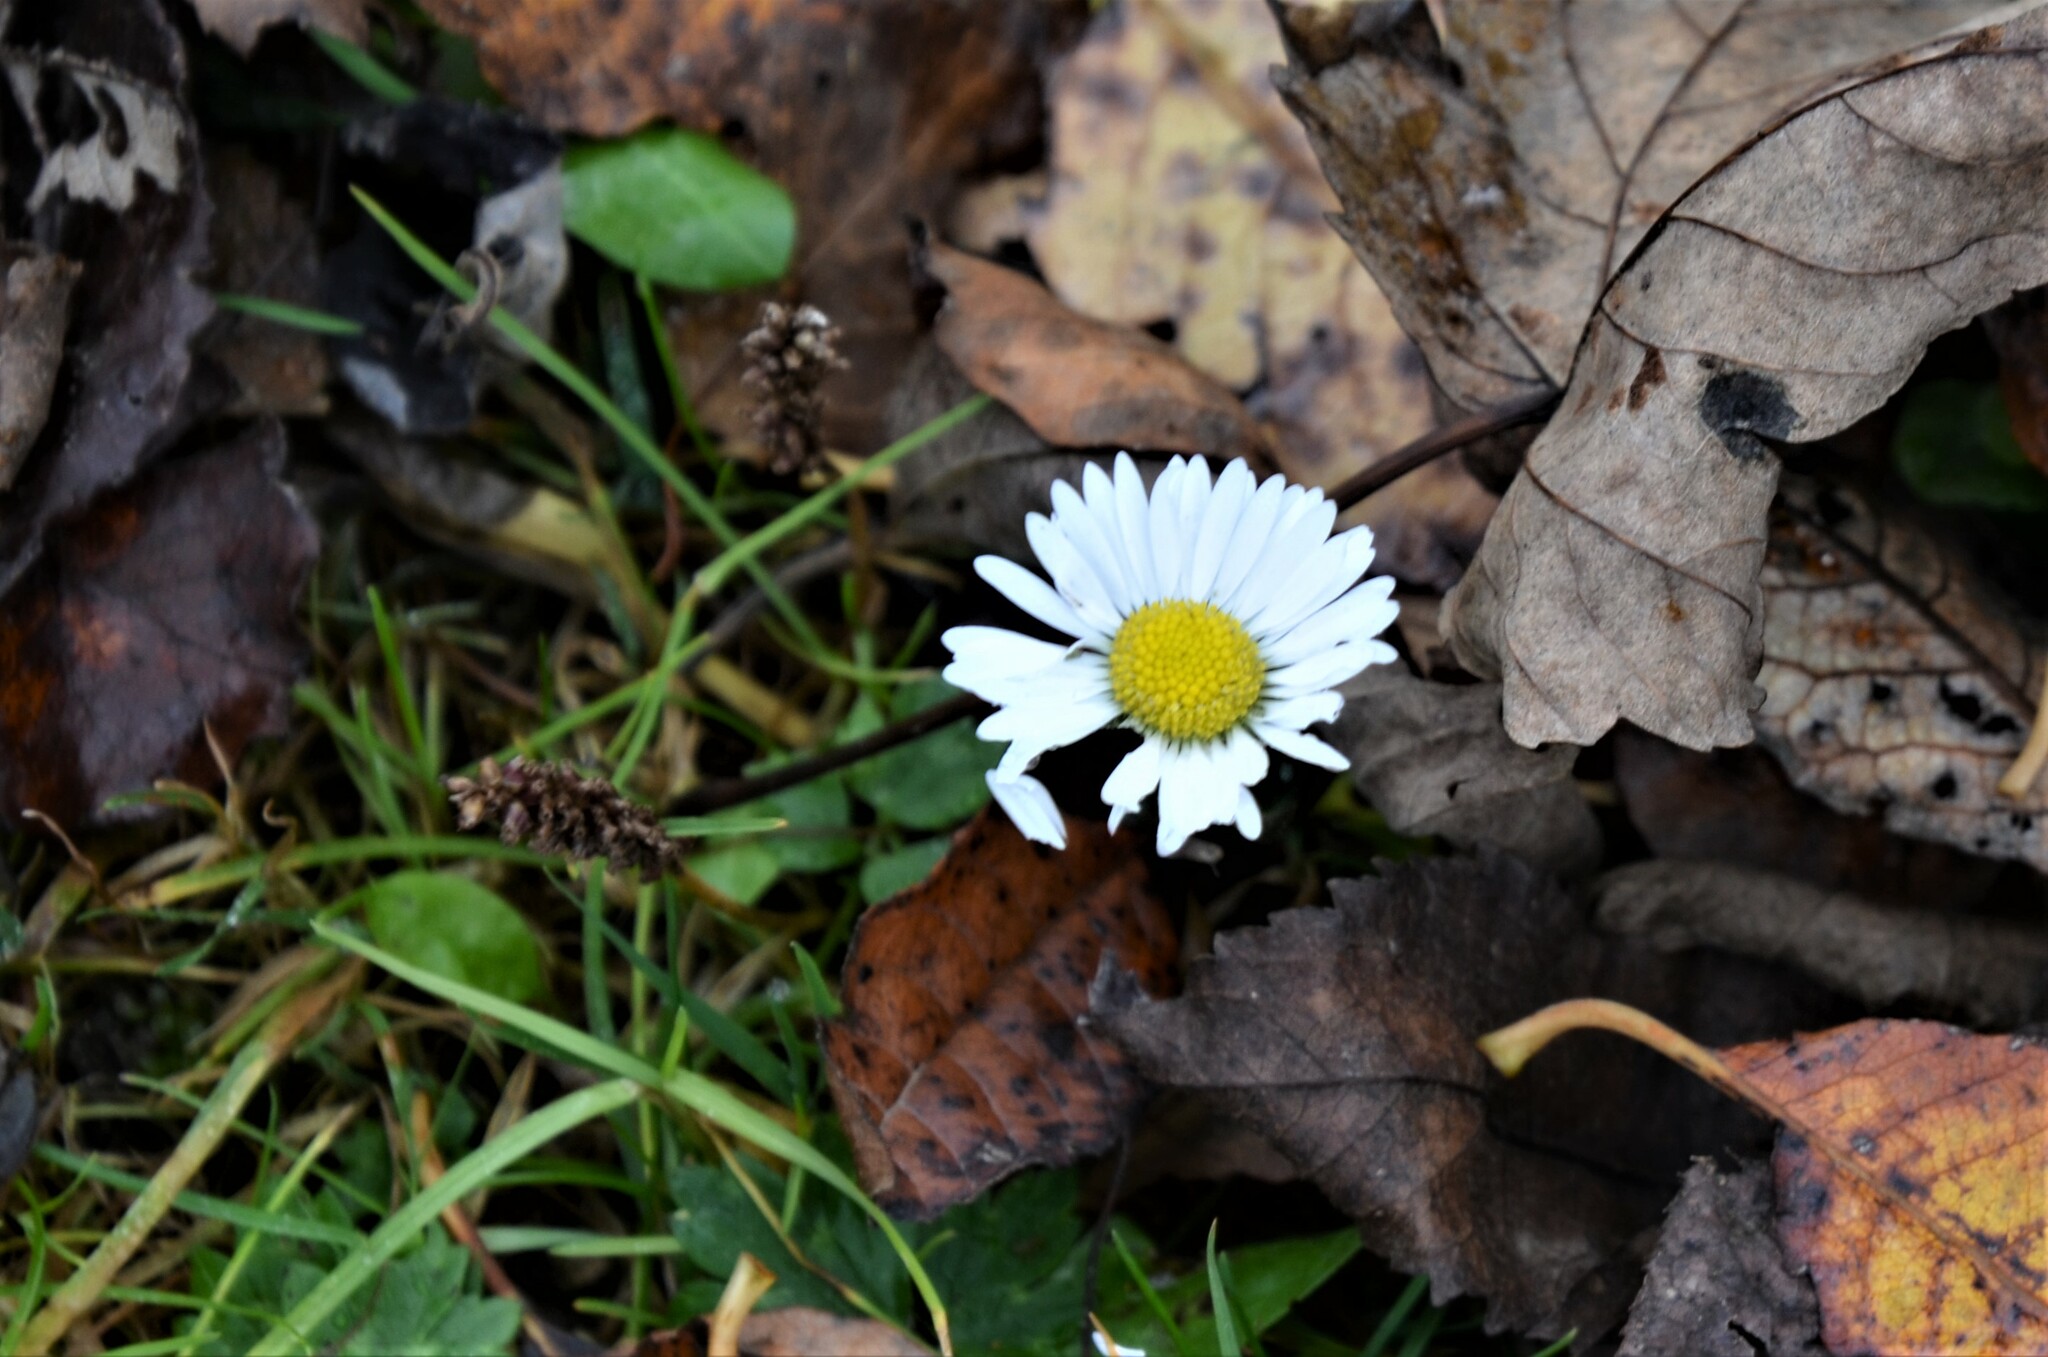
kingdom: Plantae
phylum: Tracheophyta
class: Magnoliopsida
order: Asterales
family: Asteraceae
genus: Bellis
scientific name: Bellis perennis
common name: Lawndaisy
